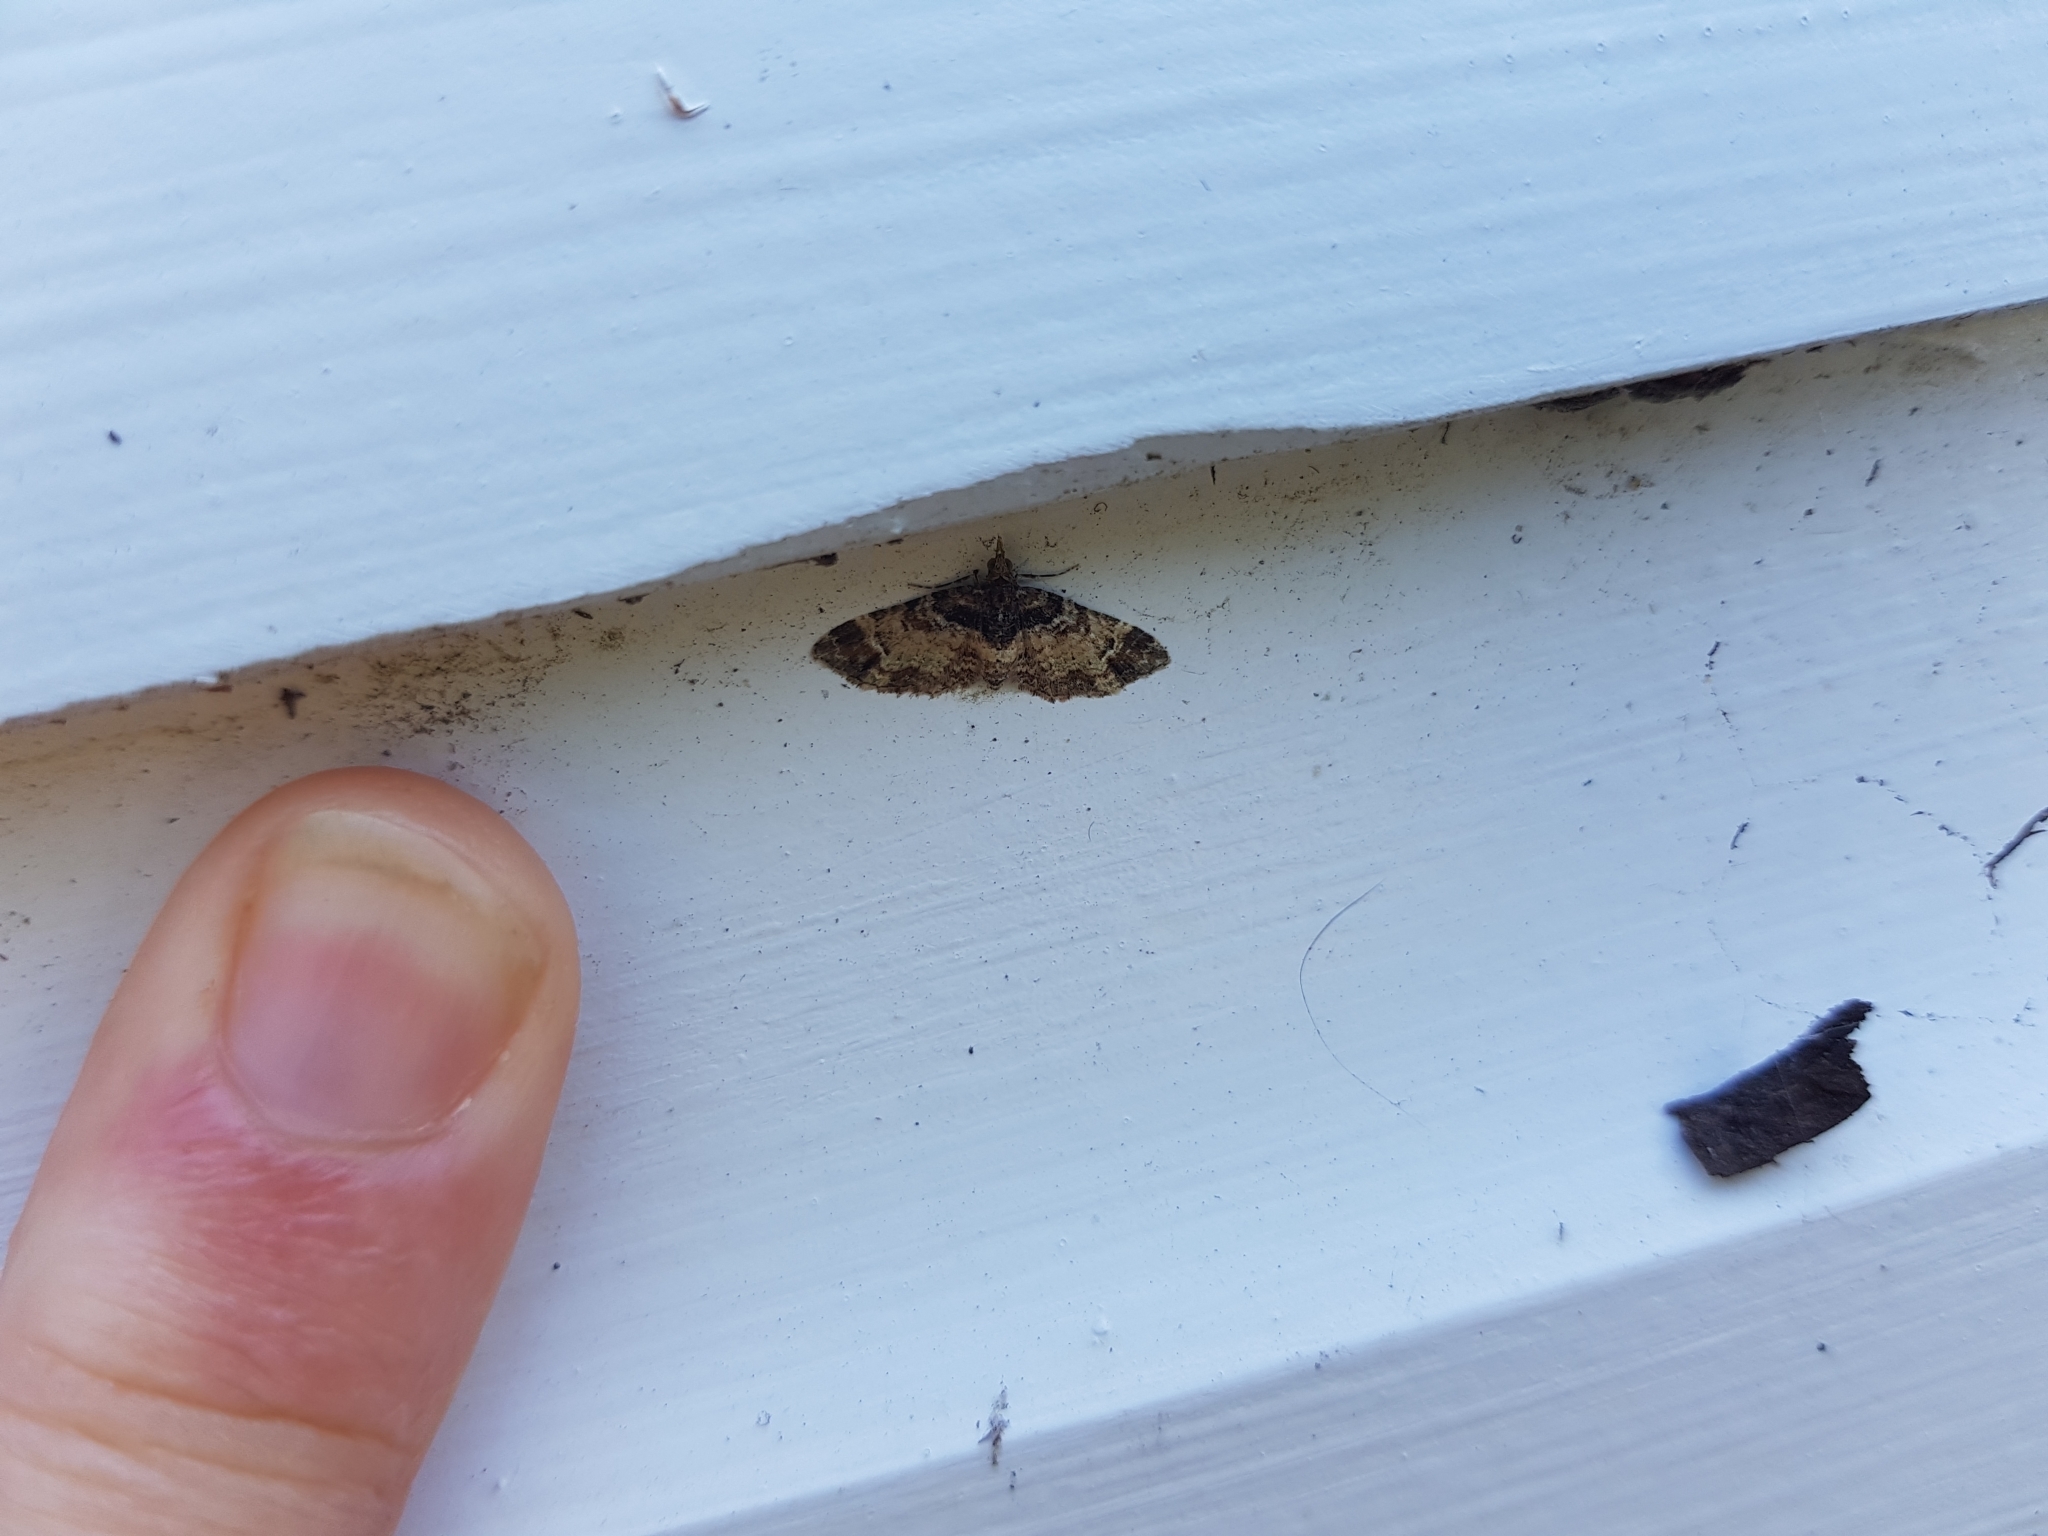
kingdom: Animalia
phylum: Arthropoda
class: Insecta
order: Lepidoptera
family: Geometridae
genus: Pasiphila
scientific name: Pasiphila sandycias
